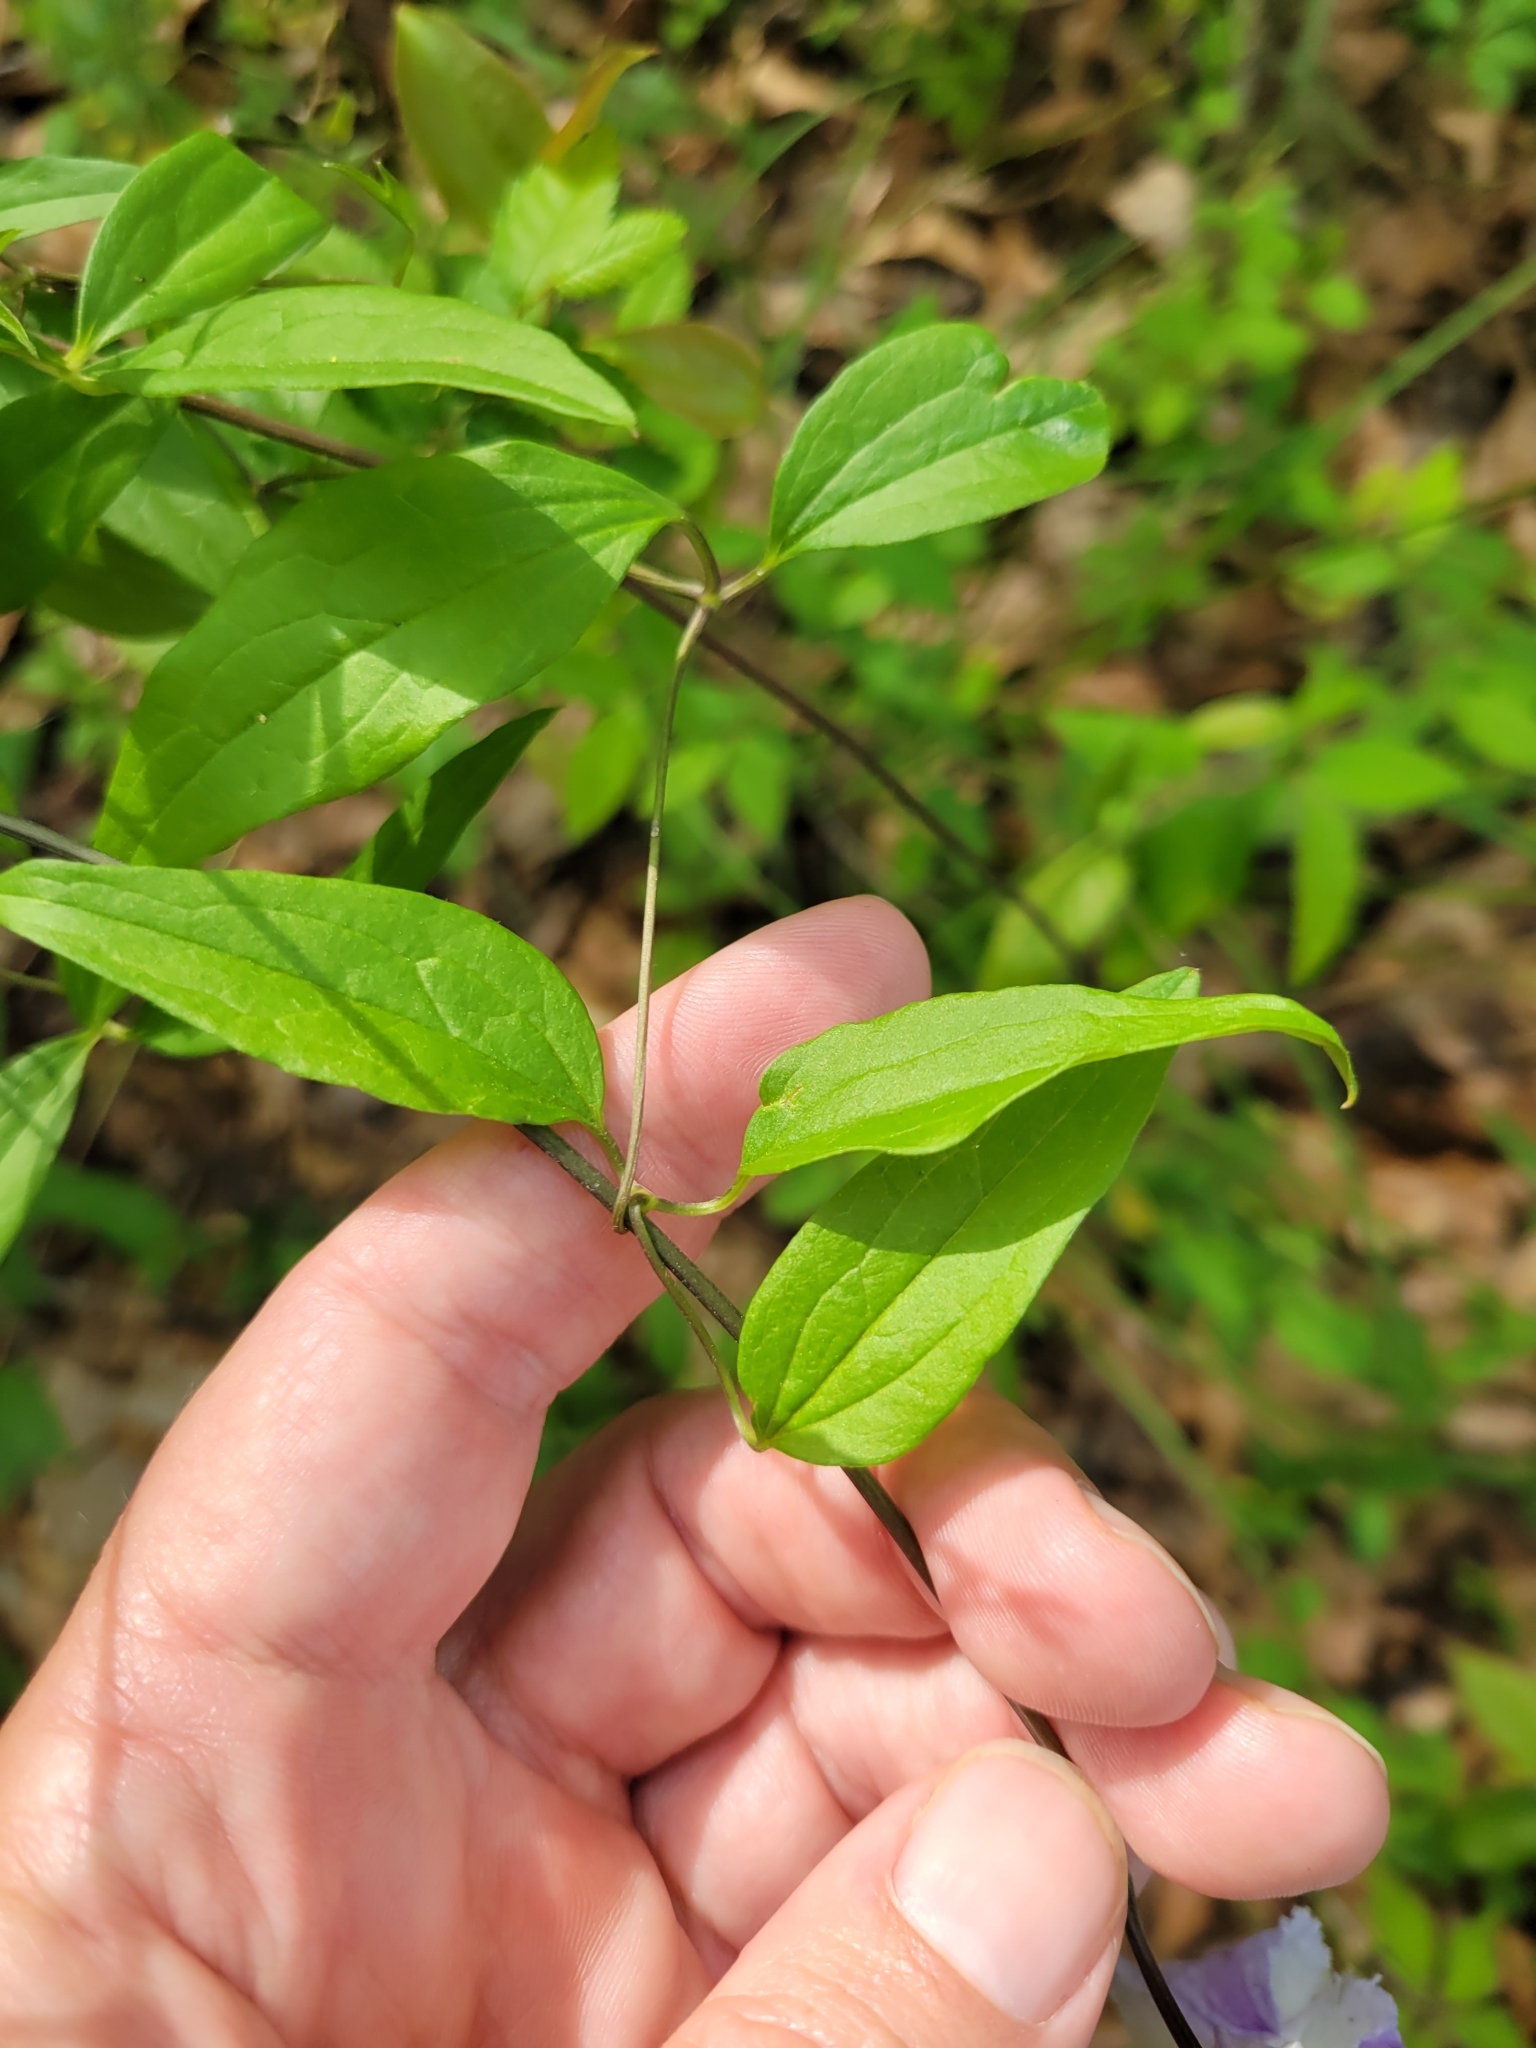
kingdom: Plantae
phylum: Tracheophyta
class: Magnoliopsida
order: Ranunculales
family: Ranunculaceae
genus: Clematis
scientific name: Clematis crispa
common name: Curly clematis
